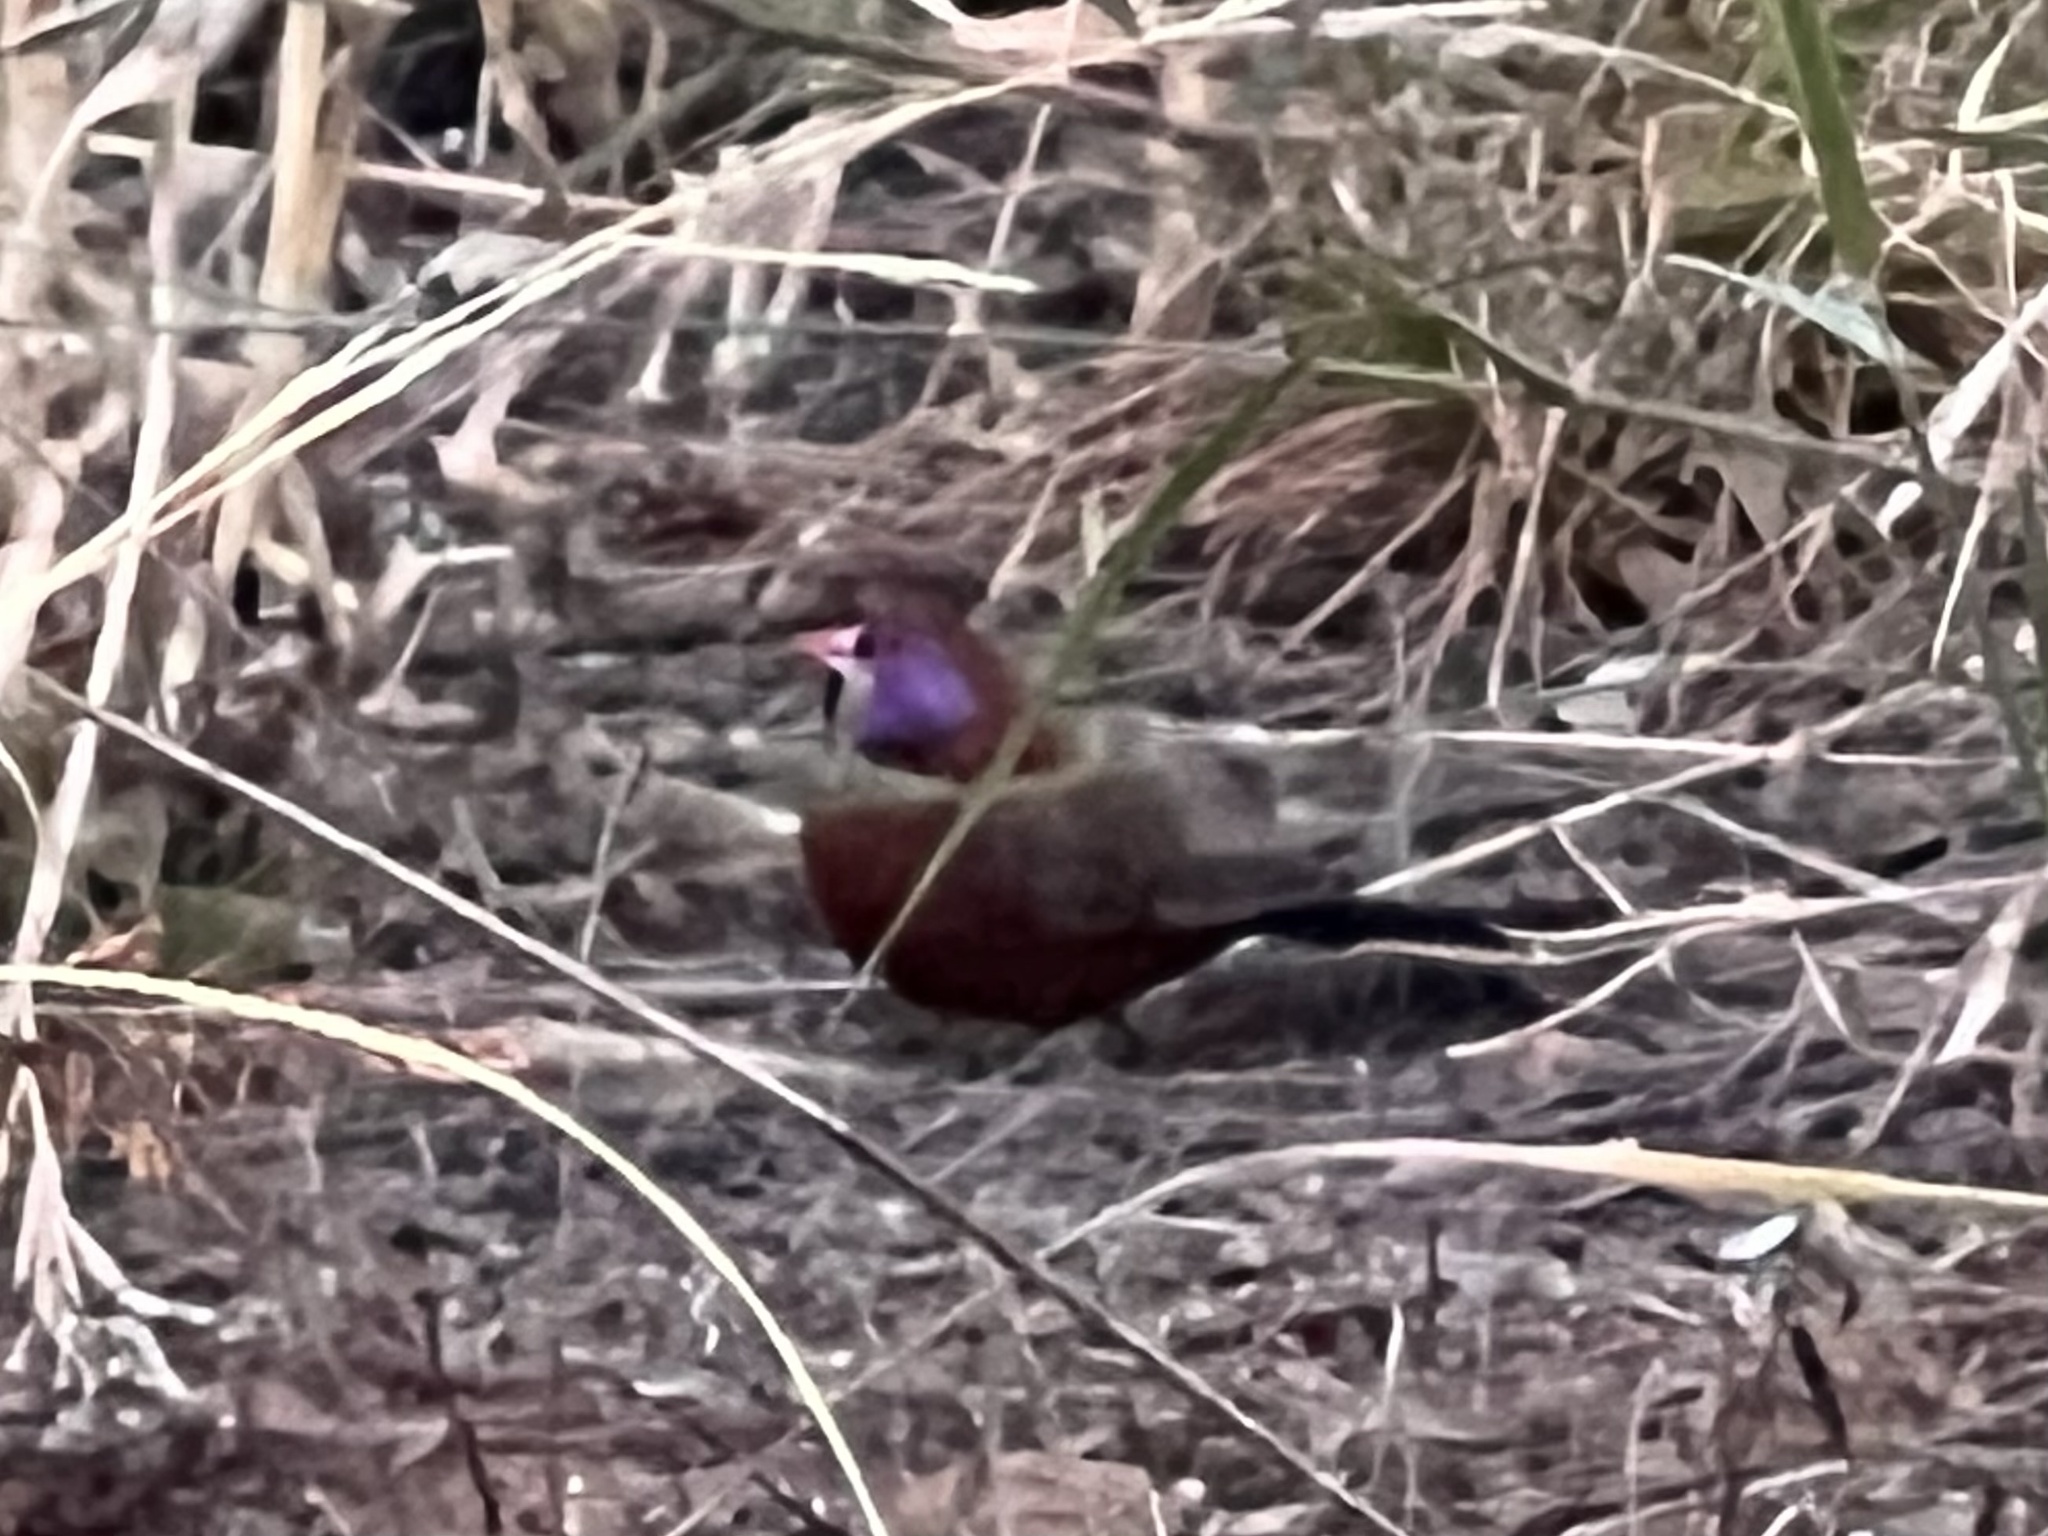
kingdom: Animalia
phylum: Chordata
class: Aves
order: Passeriformes
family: Estrildidae
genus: Uraeginthus
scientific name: Uraeginthus granatinus
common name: Violet-eared waxbill
